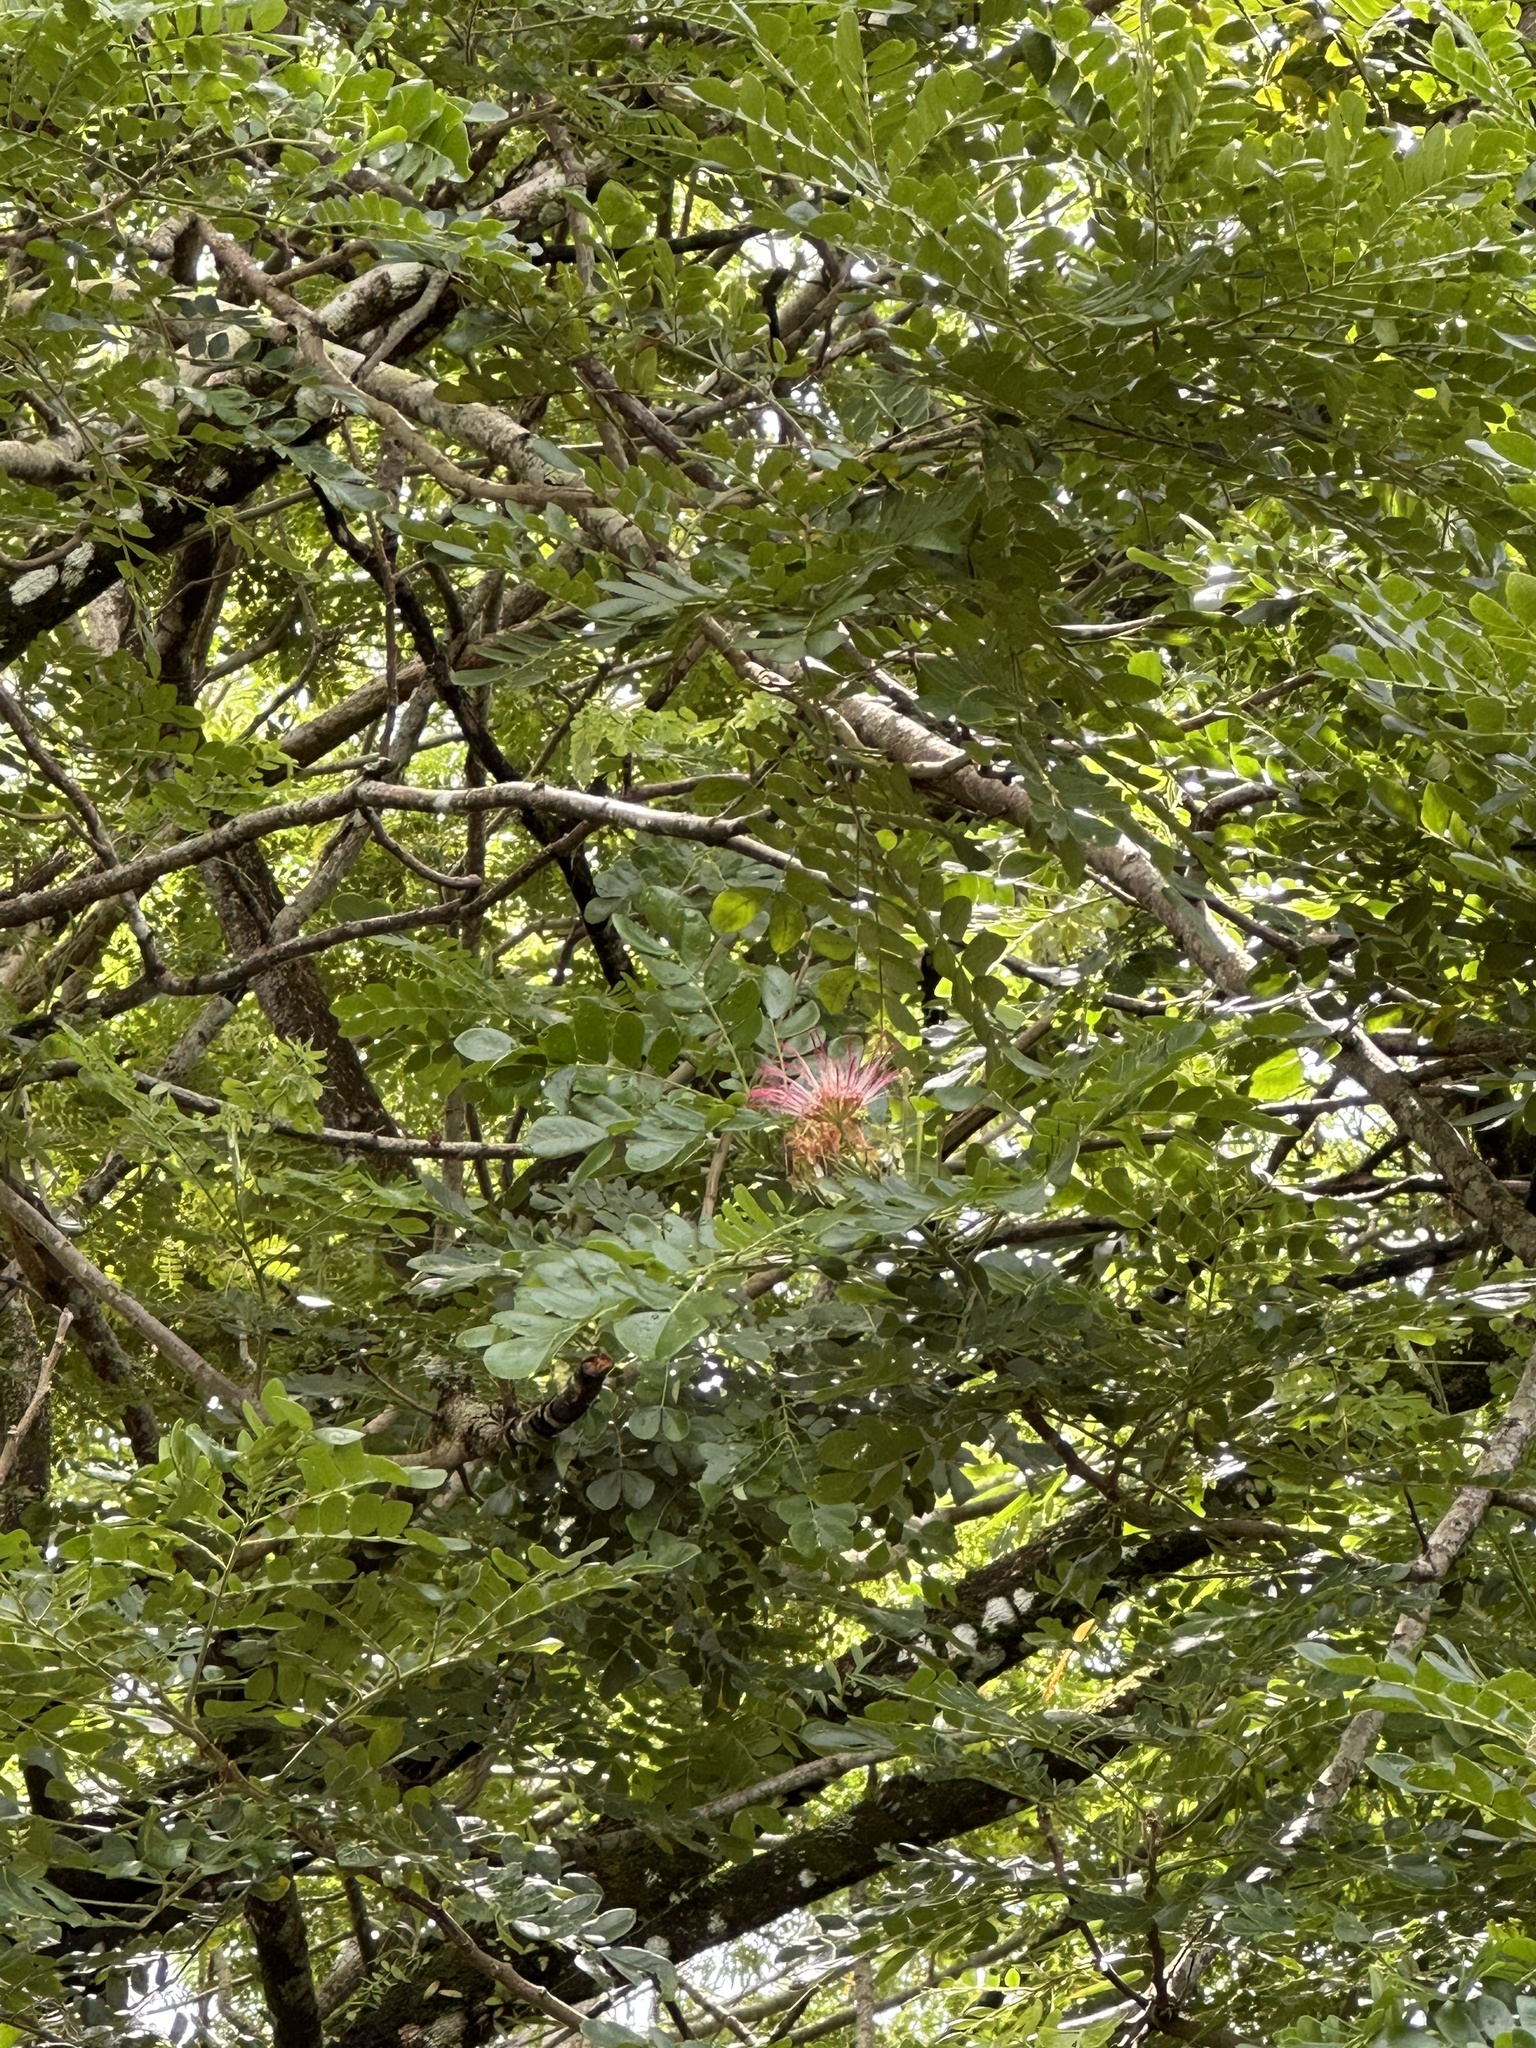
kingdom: Plantae
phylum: Tracheophyta
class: Magnoliopsida
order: Fabales
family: Fabaceae
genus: Samanea
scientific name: Samanea saman
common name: Raintree
